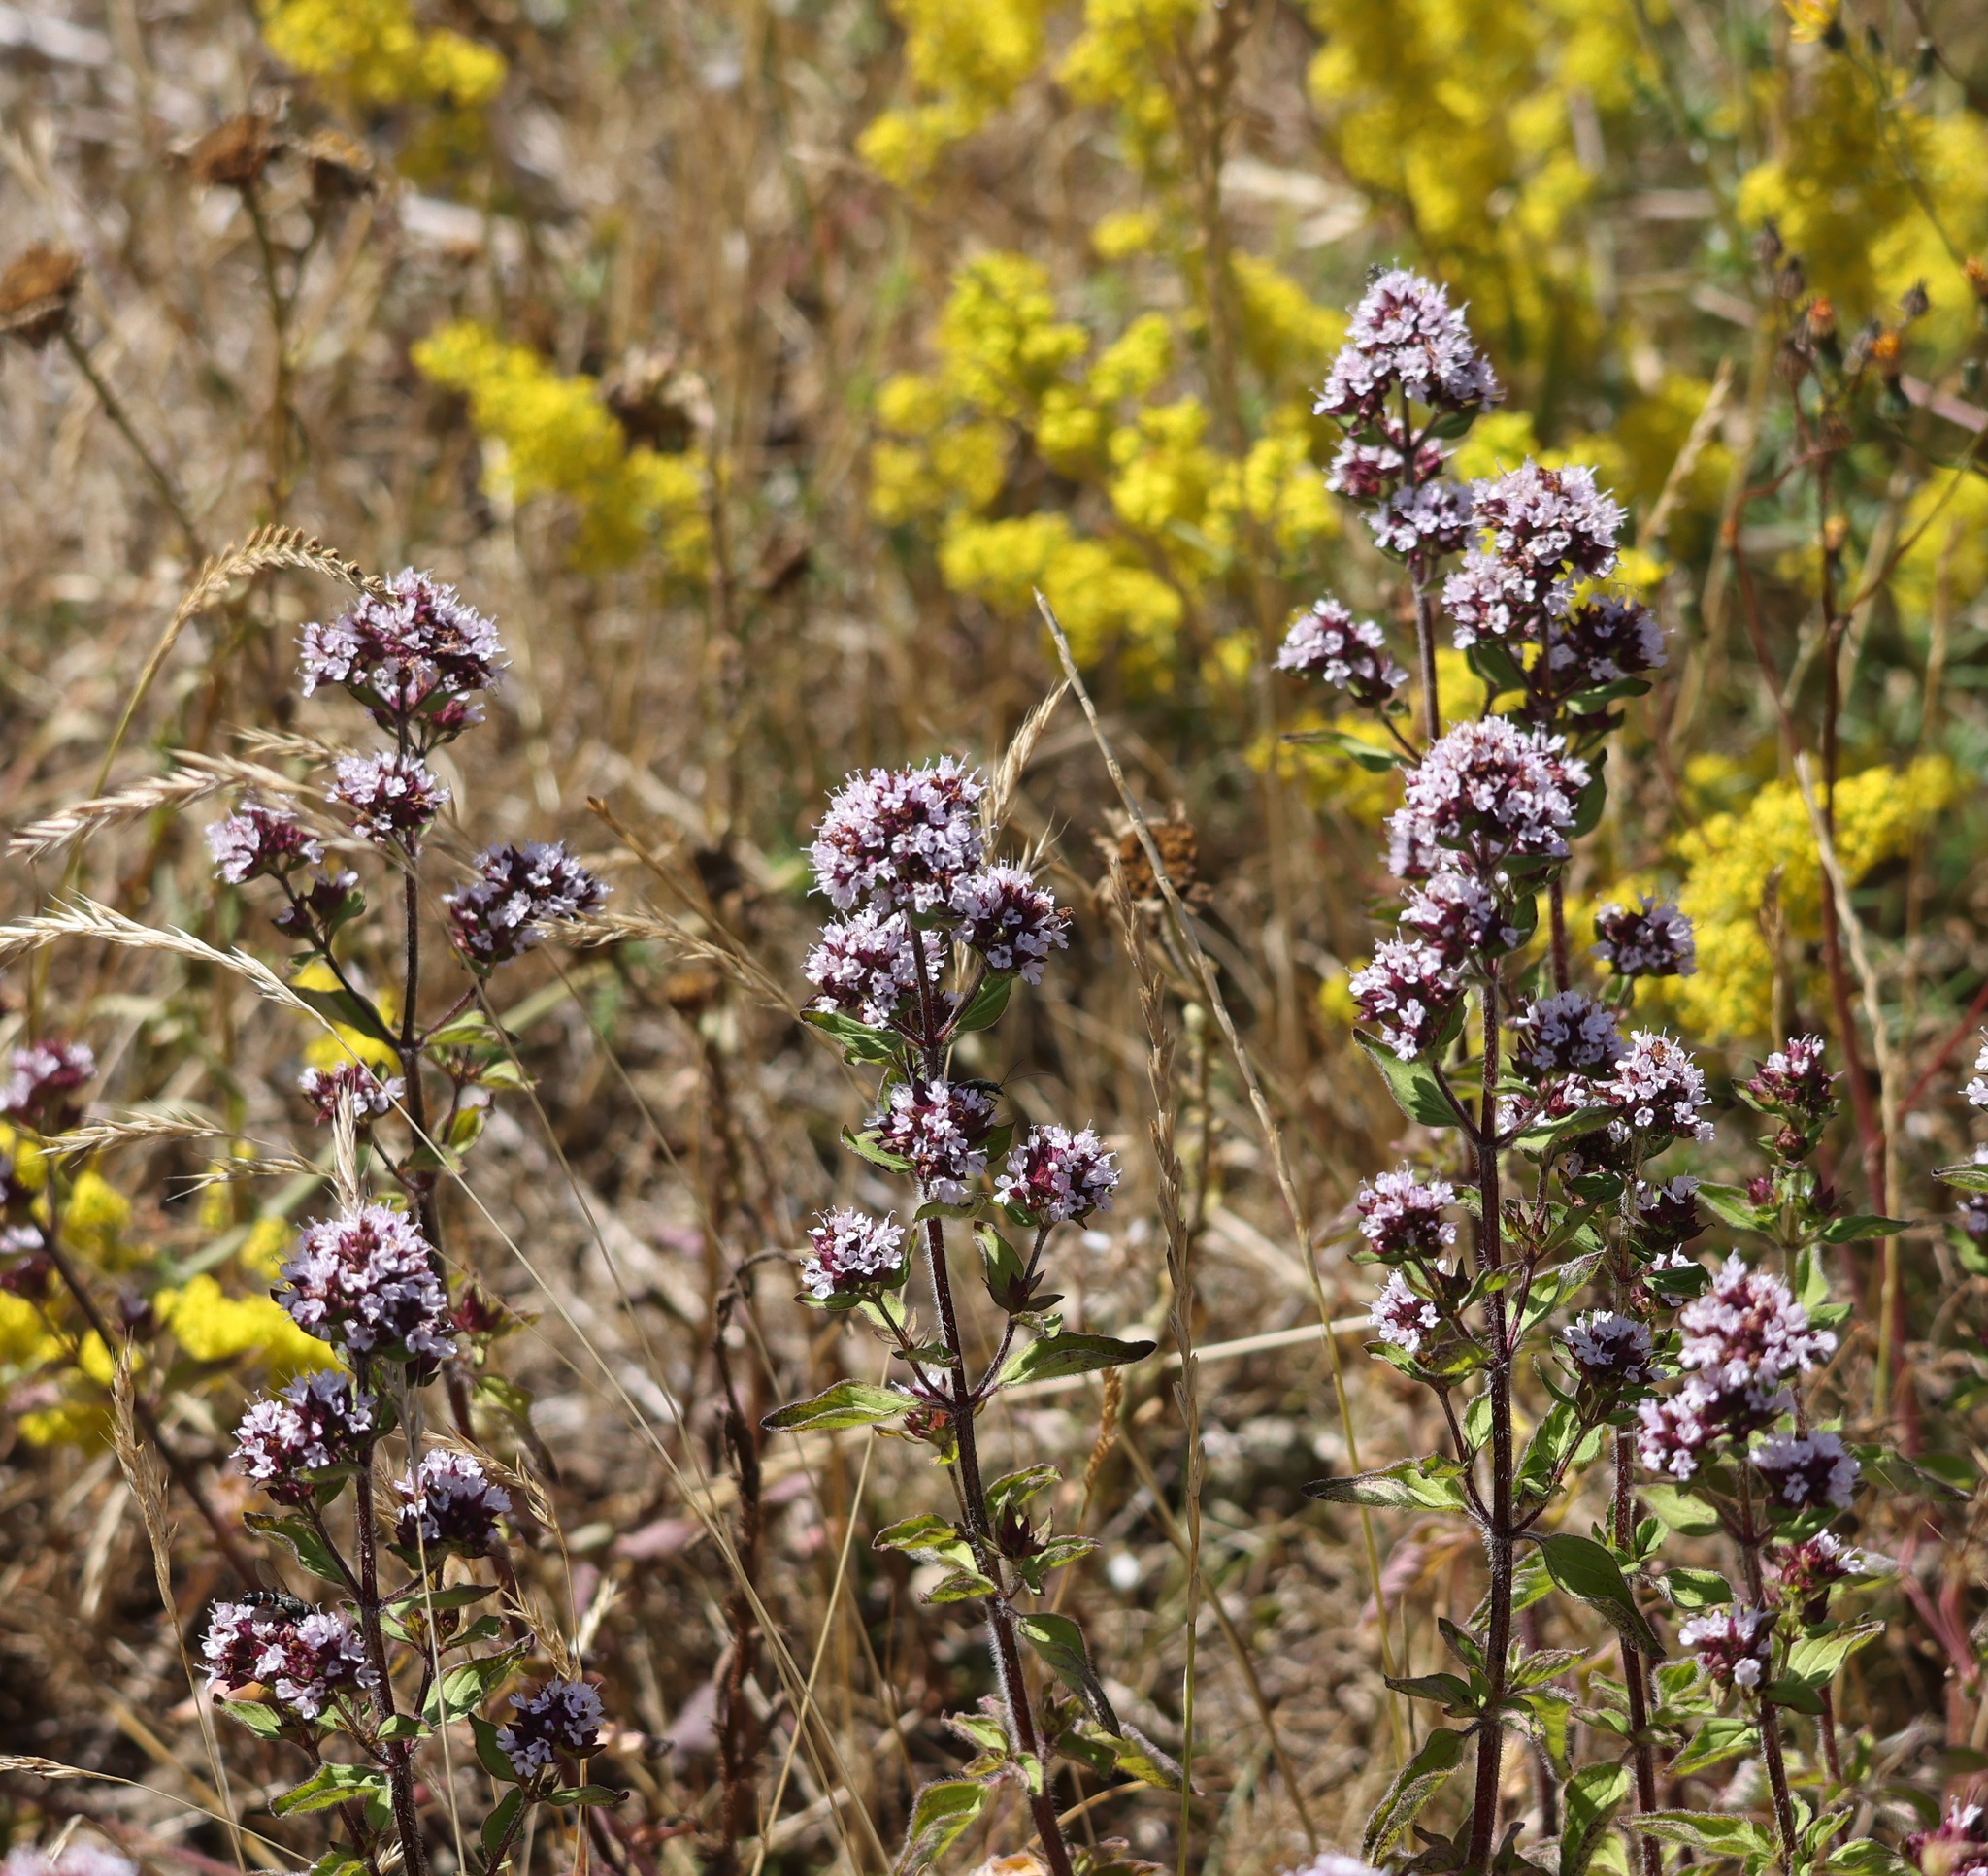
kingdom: Plantae
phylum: Tracheophyta
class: Magnoliopsida
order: Lamiales
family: Lamiaceae
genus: Origanum
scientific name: Origanum vulgare
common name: Wild marjoram
